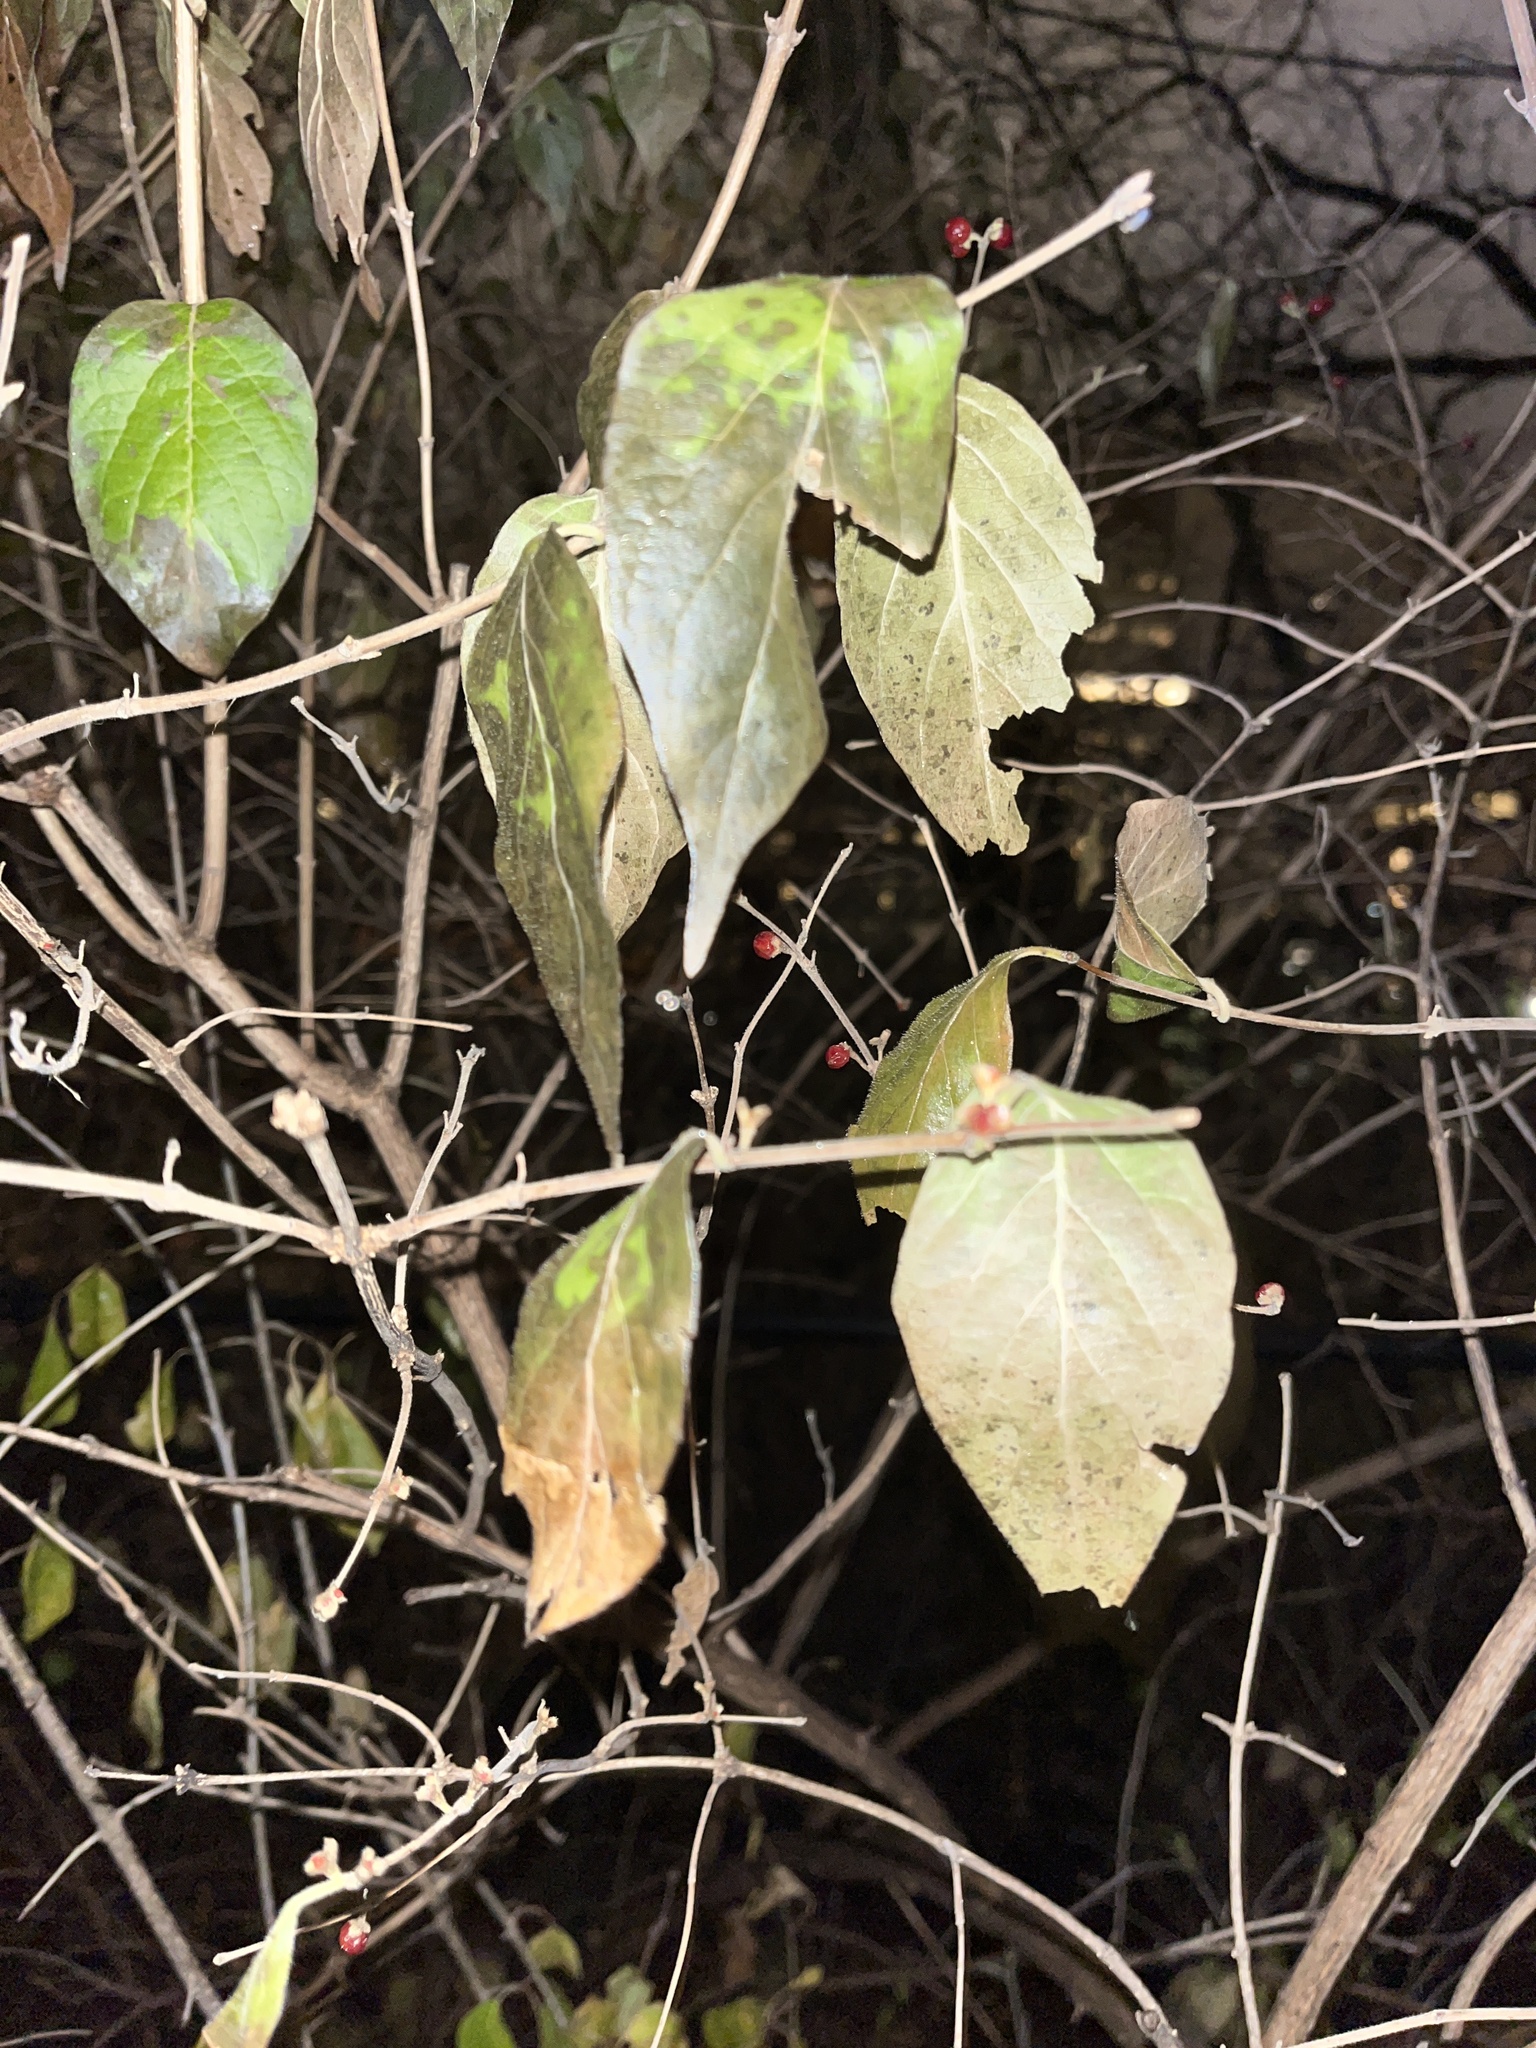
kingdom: Plantae
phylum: Tracheophyta
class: Magnoliopsida
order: Dipsacales
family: Caprifoliaceae
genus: Lonicera
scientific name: Lonicera maackii
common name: Amur honeysuckle
